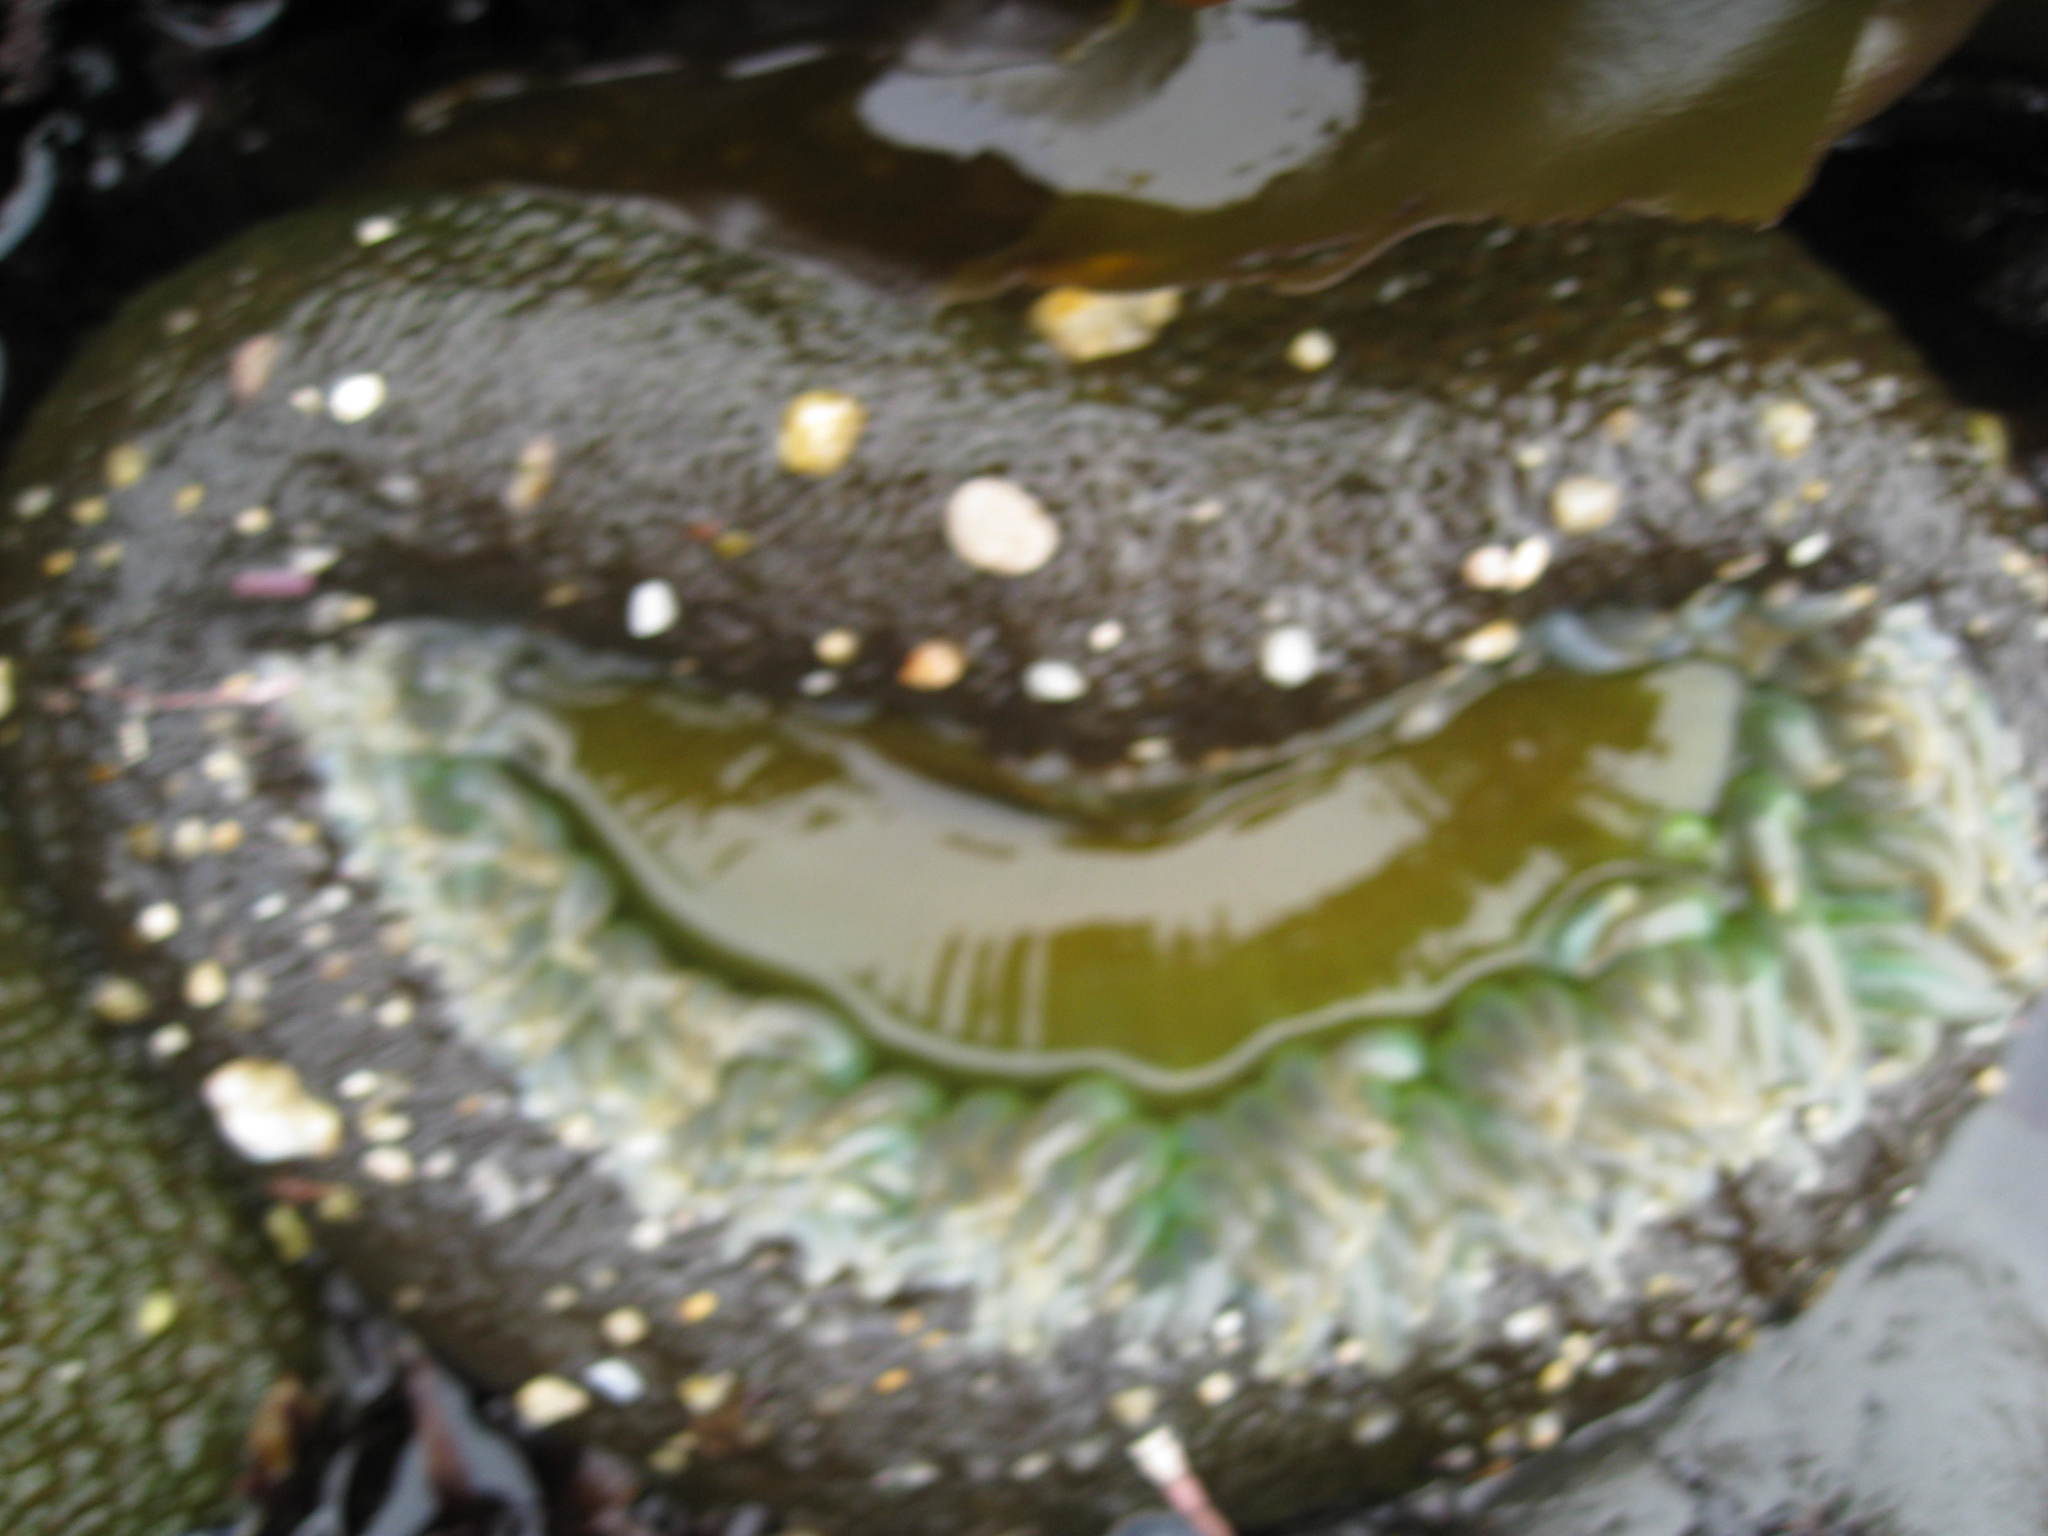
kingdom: Animalia
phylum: Cnidaria
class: Anthozoa
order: Actiniaria
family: Actiniidae
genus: Anthopleura
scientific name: Anthopleura xanthogrammica
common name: Giant green anemone
